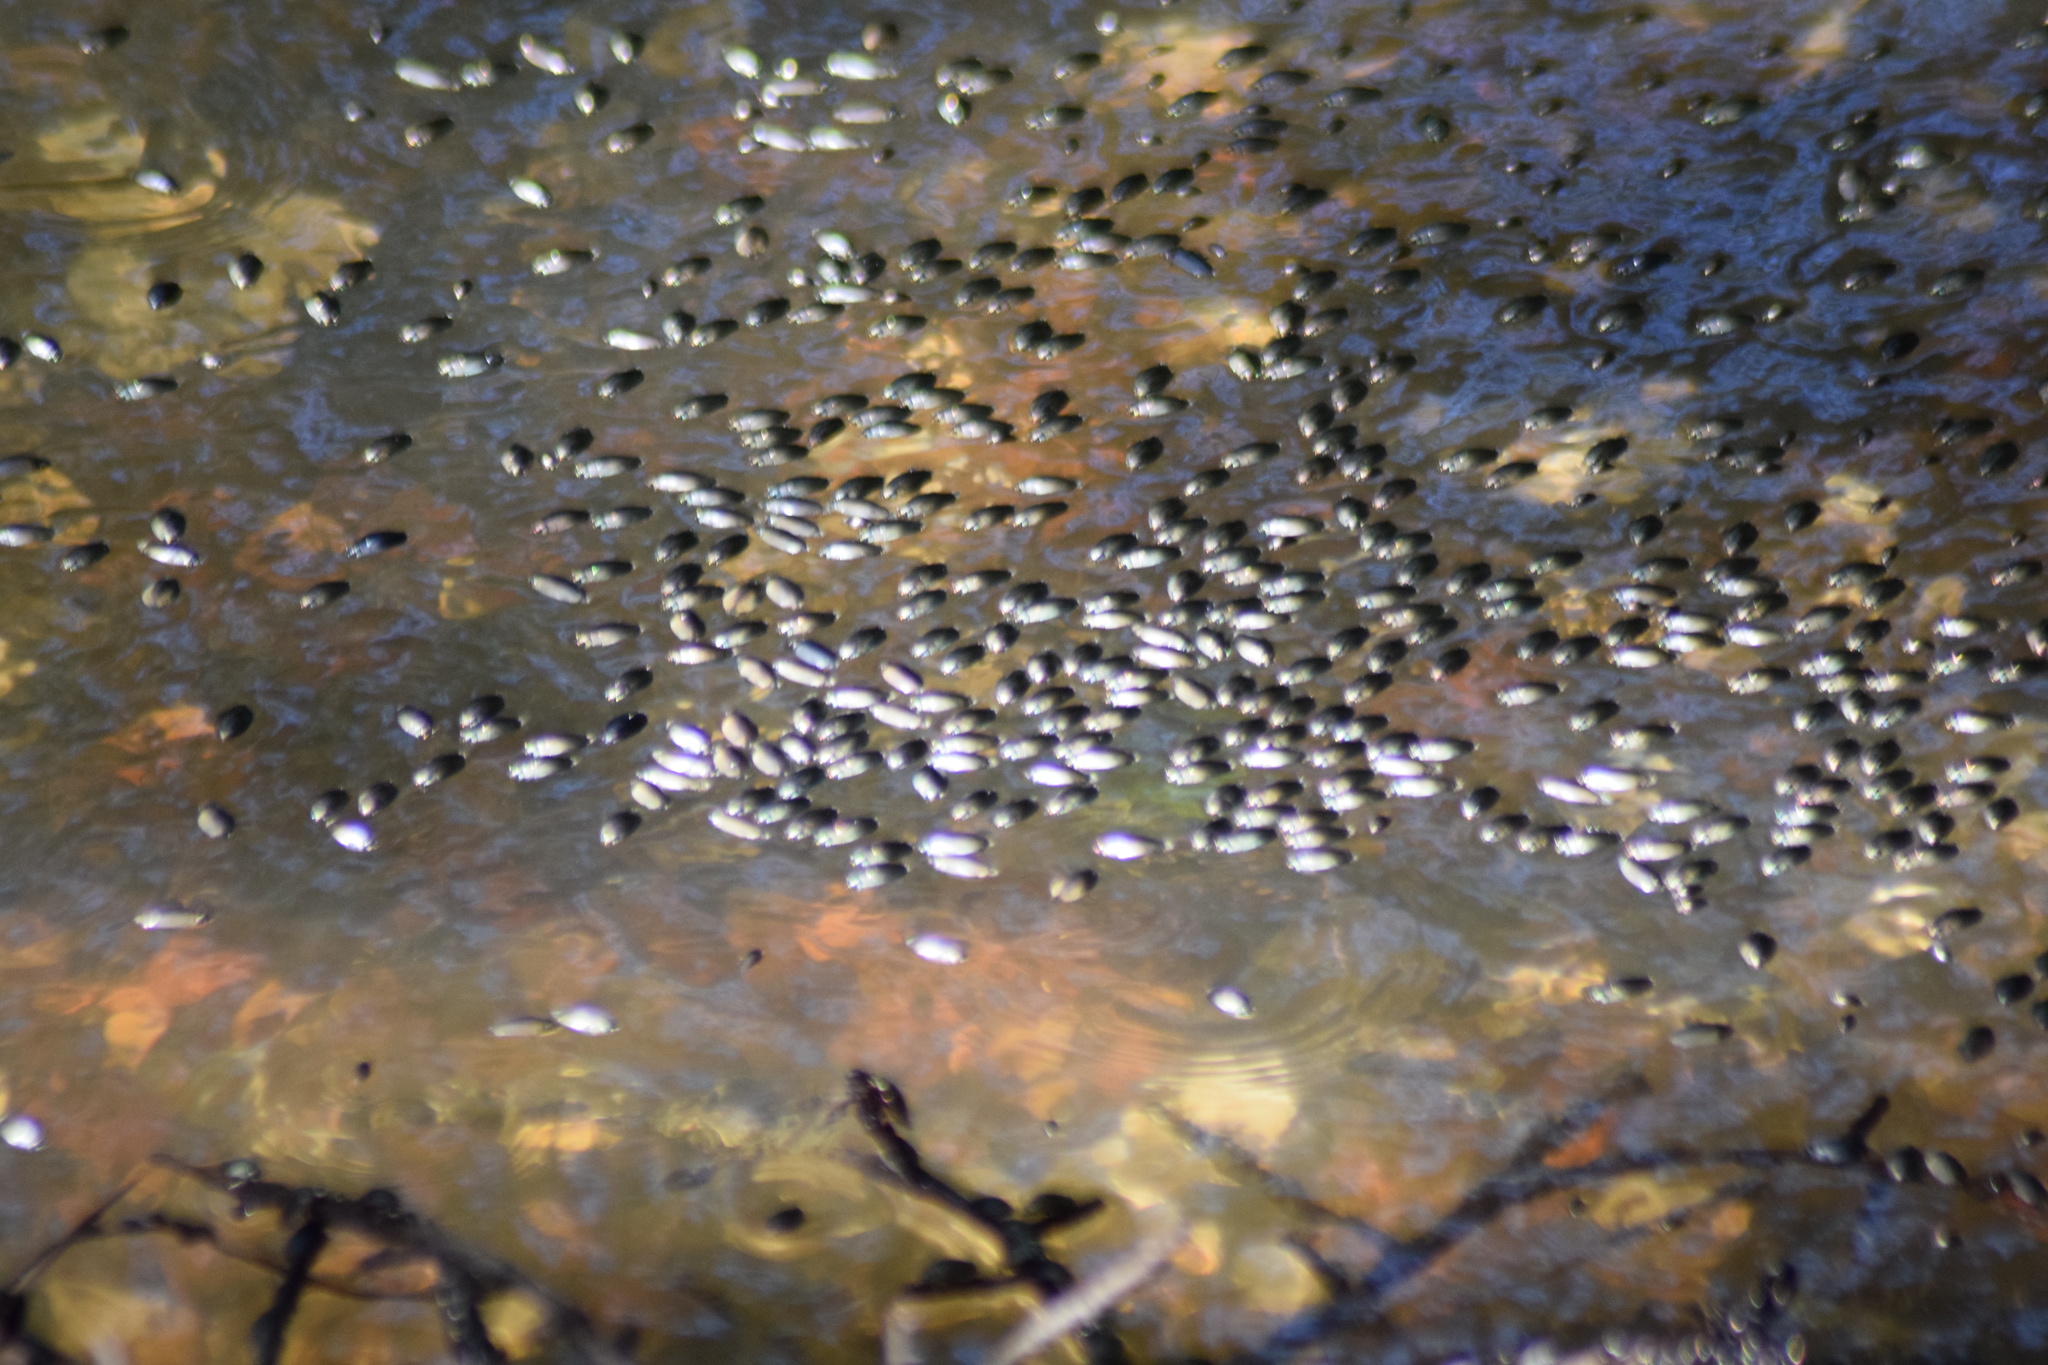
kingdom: Animalia
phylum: Arthropoda
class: Insecta
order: Coleoptera
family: Gyrinidae
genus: Dineutus
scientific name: Dineutus
